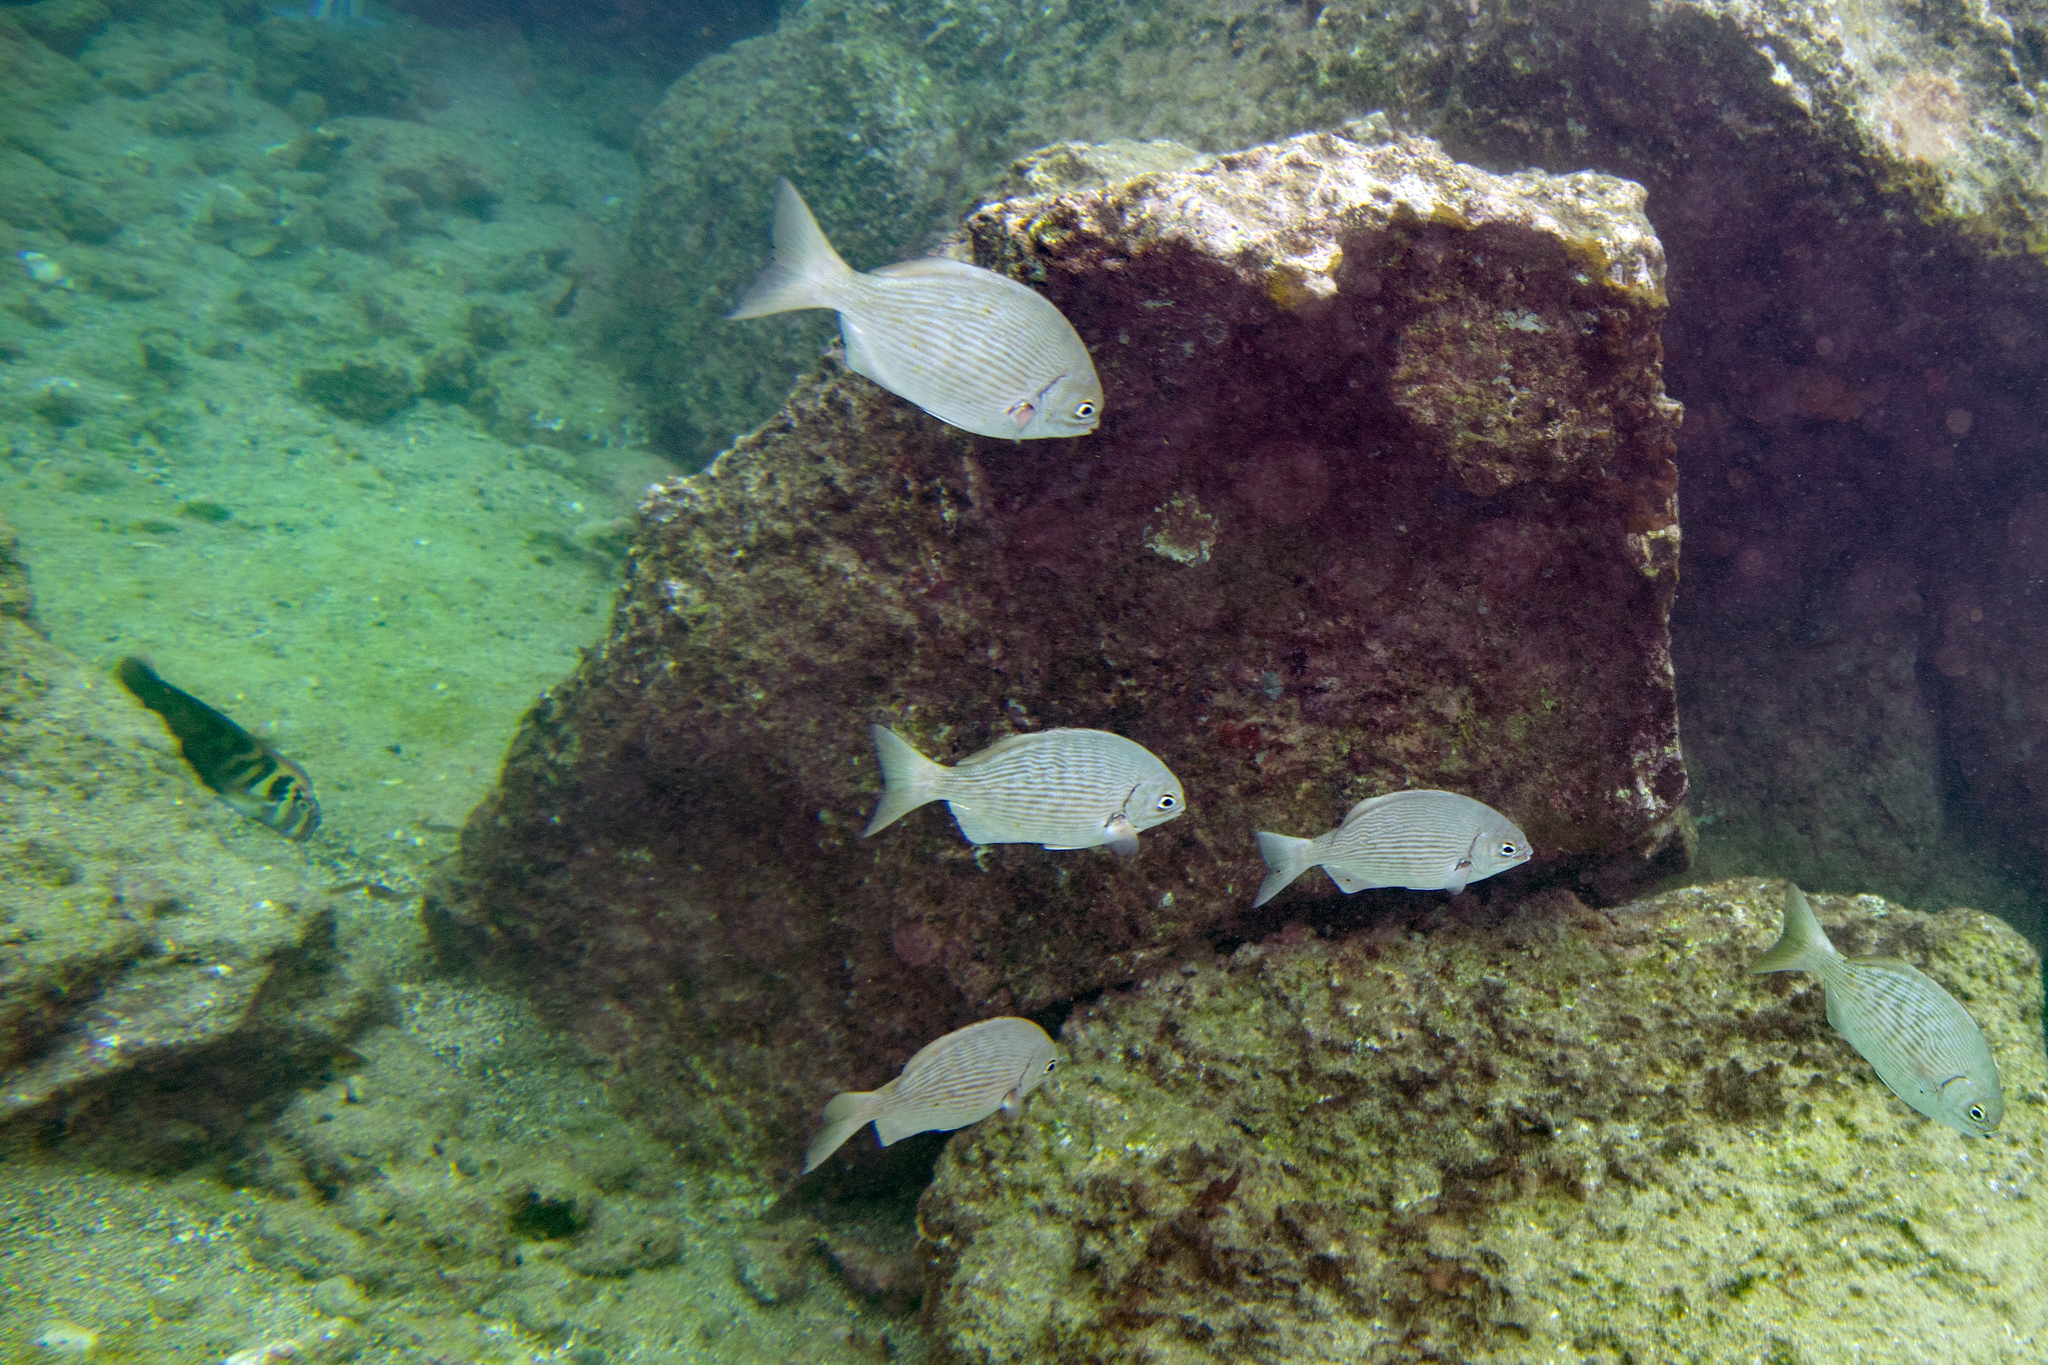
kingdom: Animalia
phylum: Chordata
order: Perciformes
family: Kyphosidae
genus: Kyphosus
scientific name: Kyphosus elegans
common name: Cortez chub
